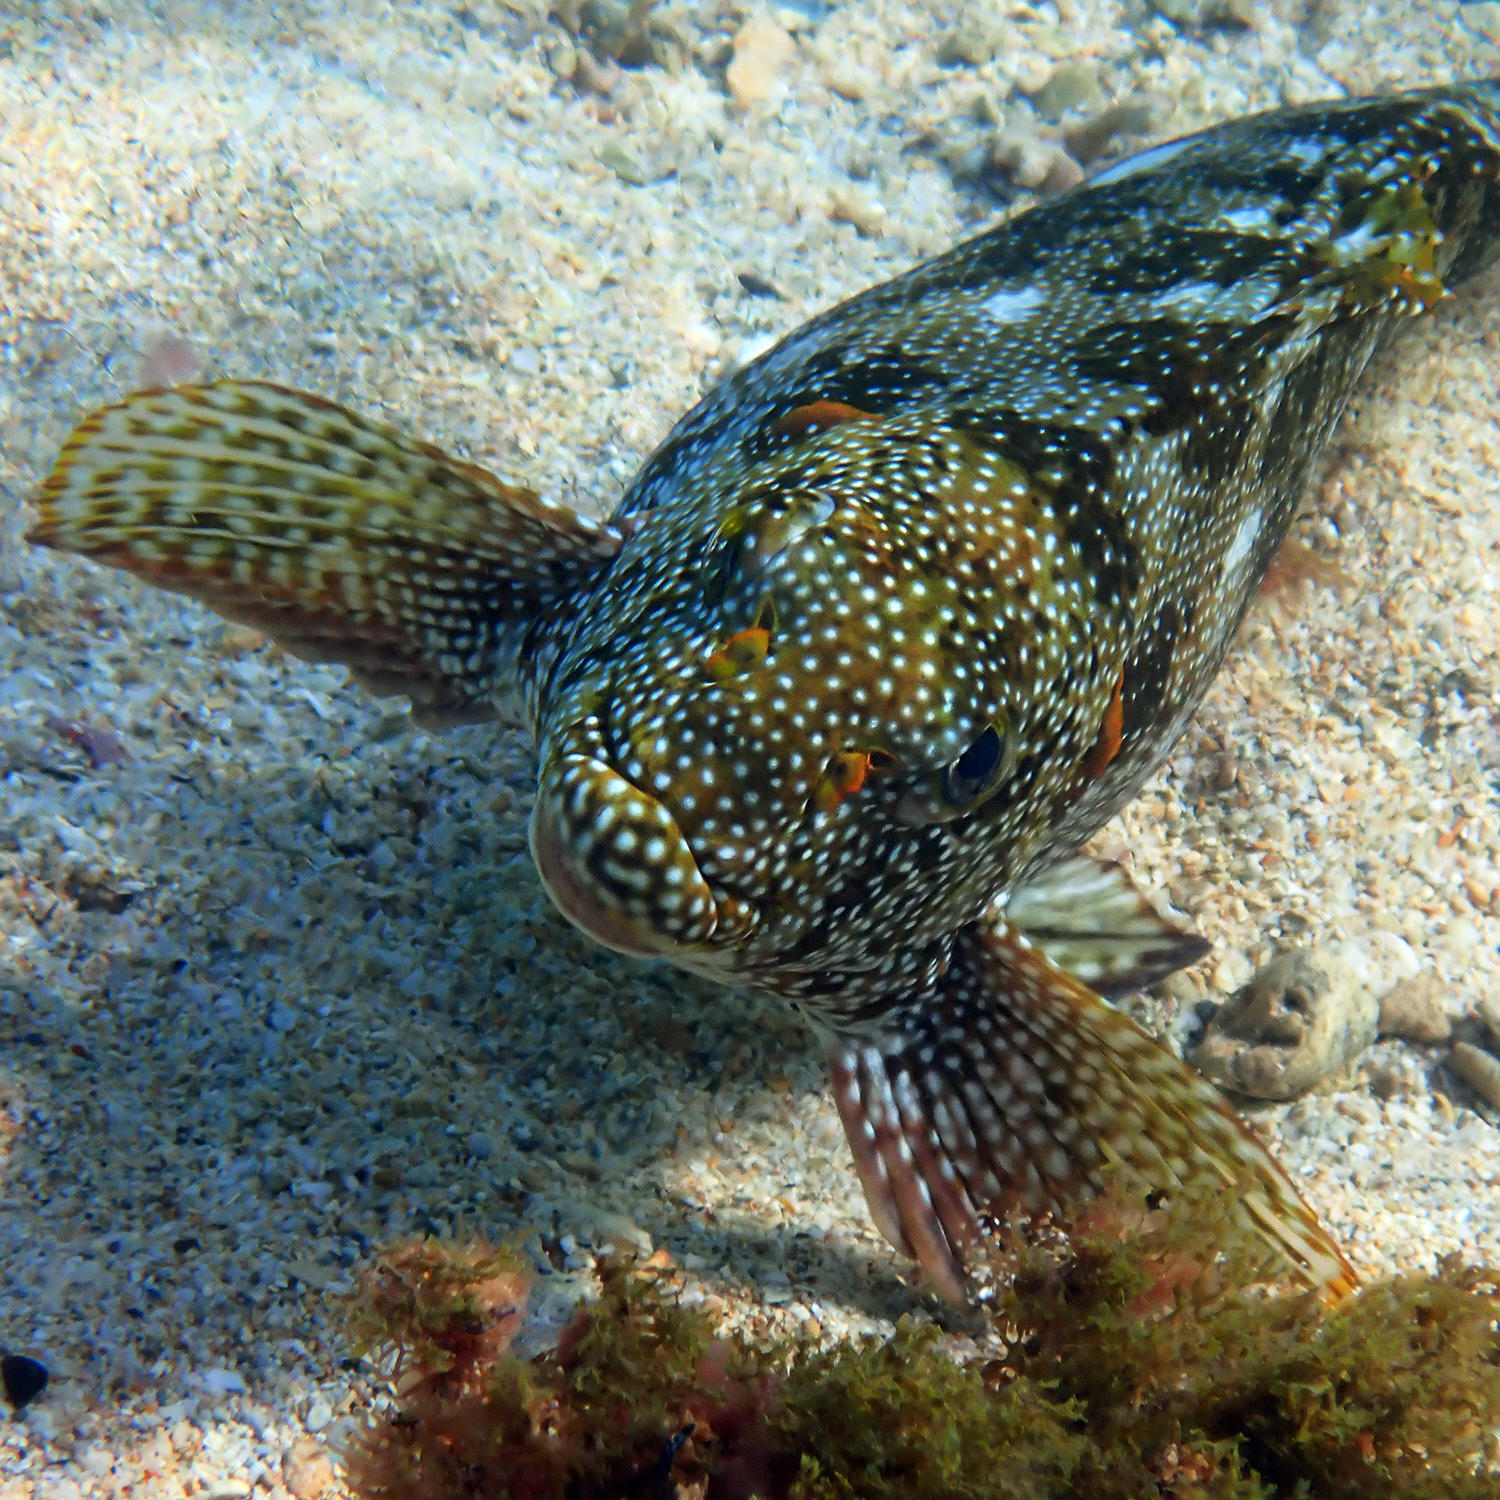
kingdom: Animalia
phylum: Chordata
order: Perciformes
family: Aplodactylidae
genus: Aplodactylus
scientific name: Aplodactylus etheridgii
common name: Notchheaded marblefish
